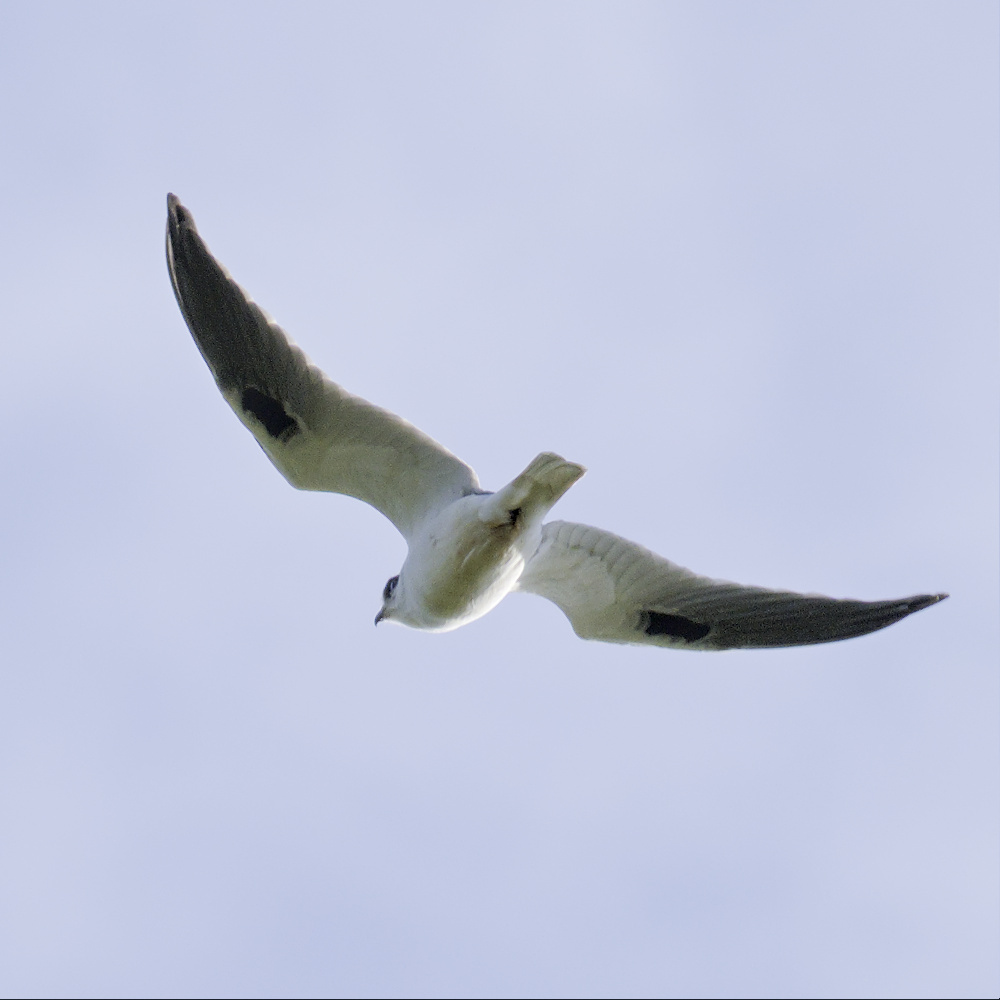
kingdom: Animalia
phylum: Chordata
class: Aves
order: Accipitriformes
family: Accipitridae
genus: Elanus
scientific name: Elanus axillaris
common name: Black-shouldered kite
